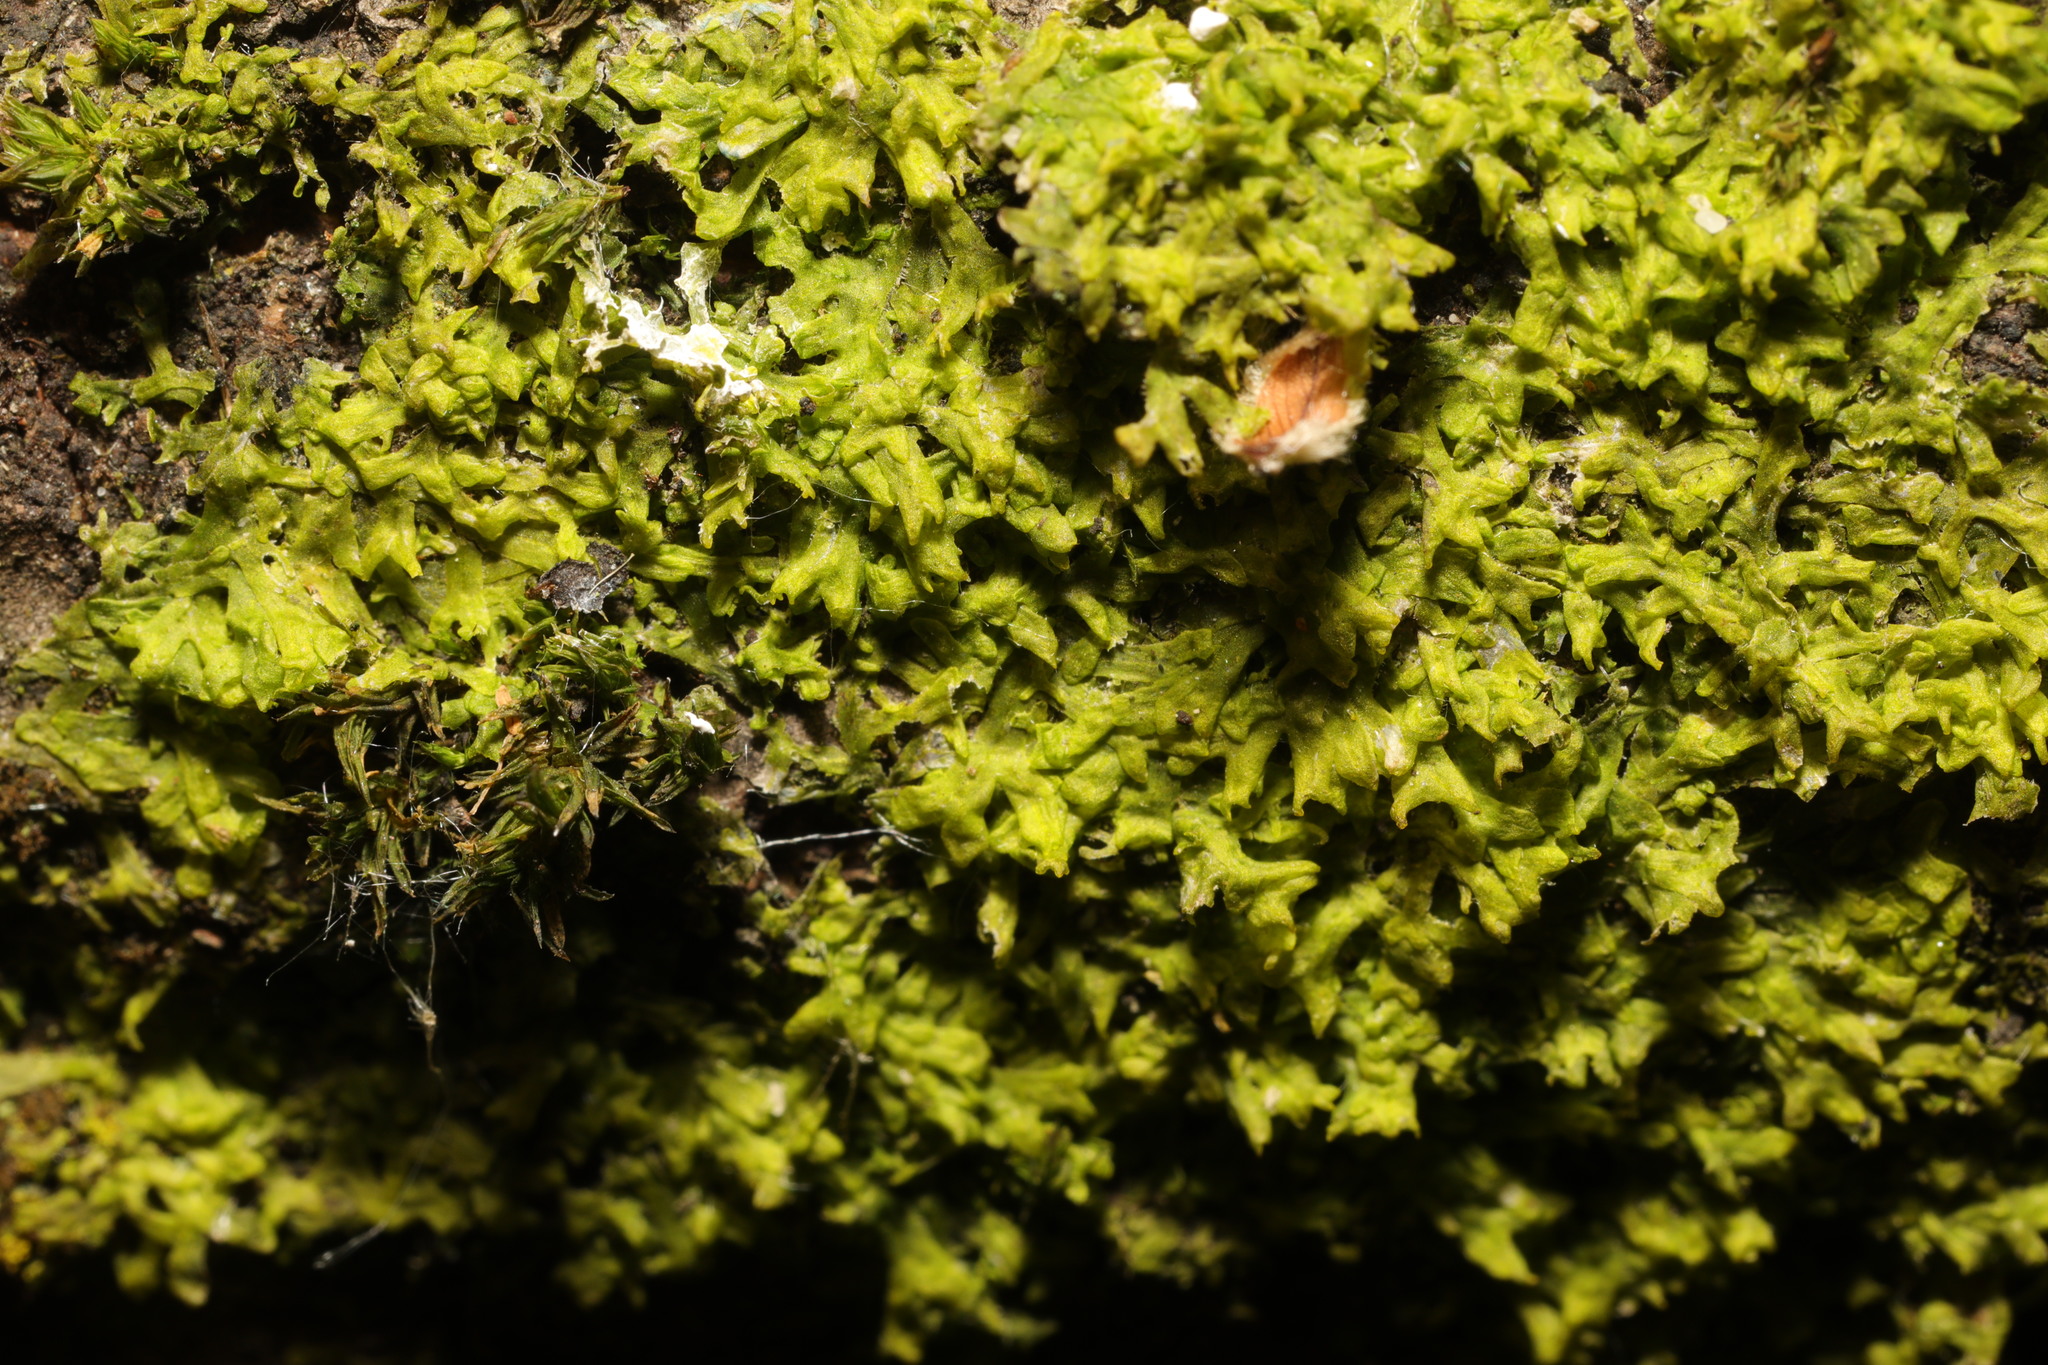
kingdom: Plantae
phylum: Marchantiophyta
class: Jungermanniopsida
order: Metzgeriales
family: Metzgeriaceae
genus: Metzgeria
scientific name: Metzgeria violacea
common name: Blueish veilwort
